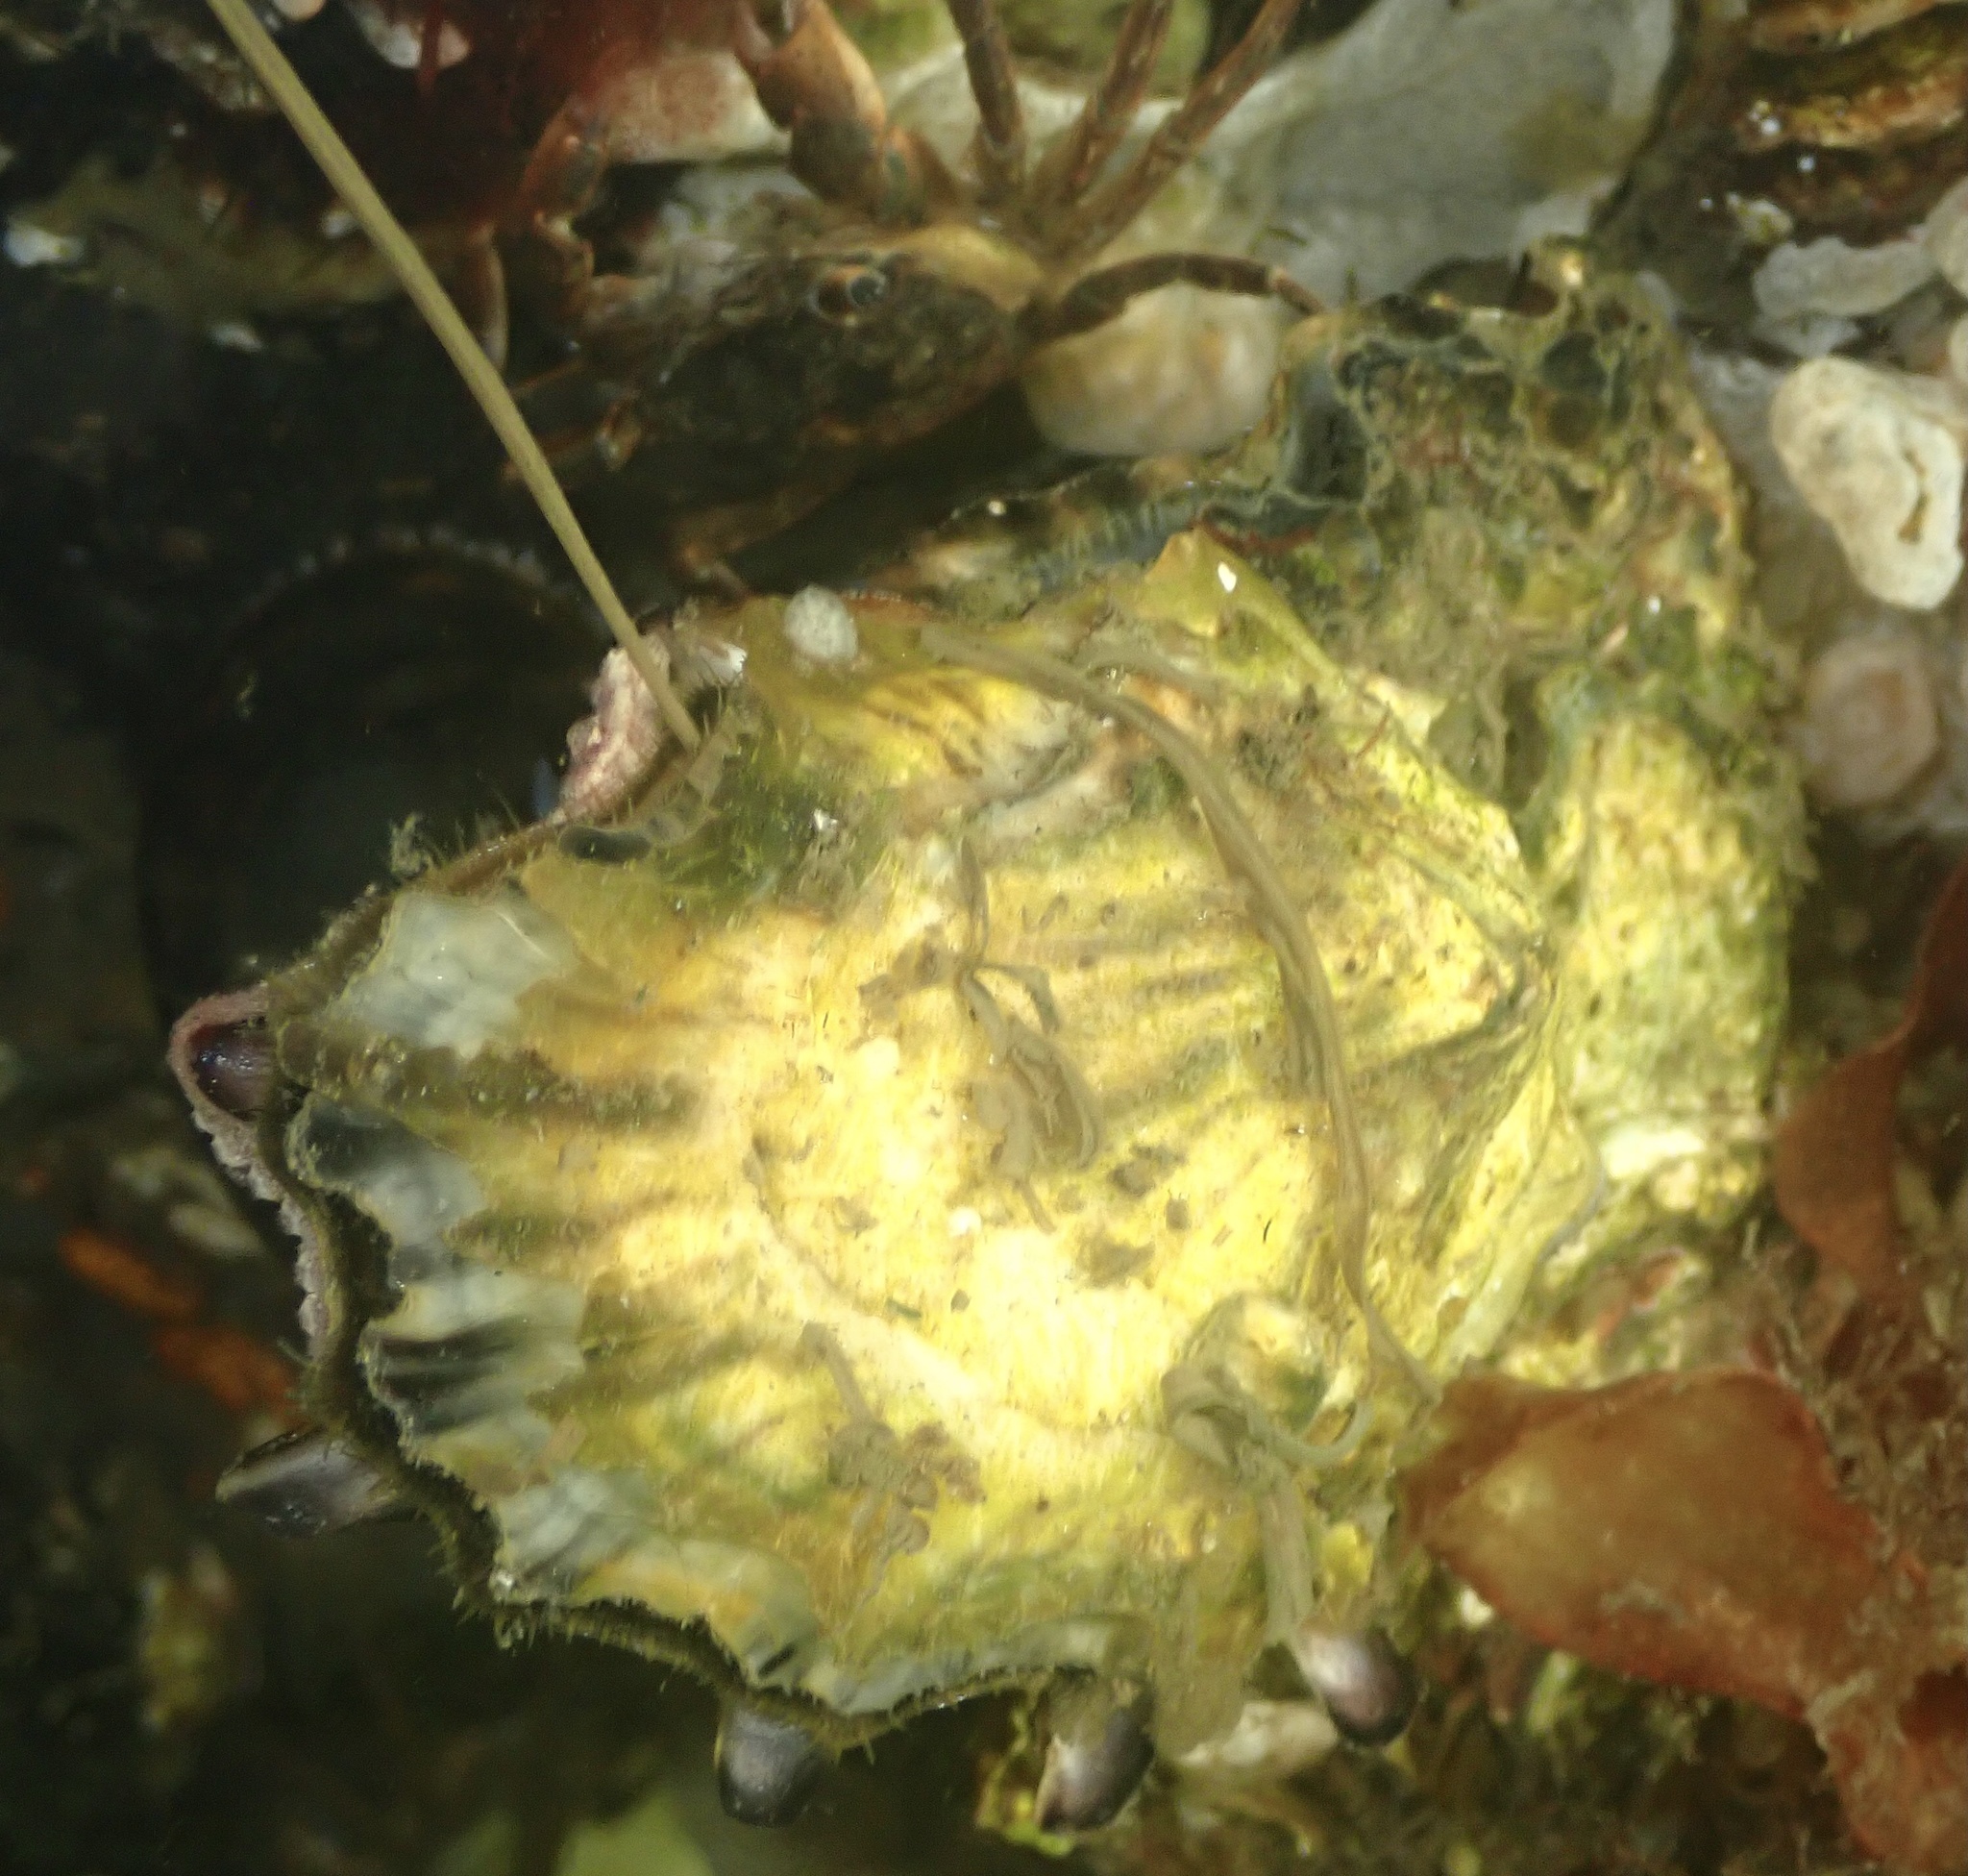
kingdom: Animalia
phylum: Mollusca
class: Bivalvia
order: Ostreida
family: Ostreidae
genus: Magallana
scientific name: Magallana gigas
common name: Pacific oyster
